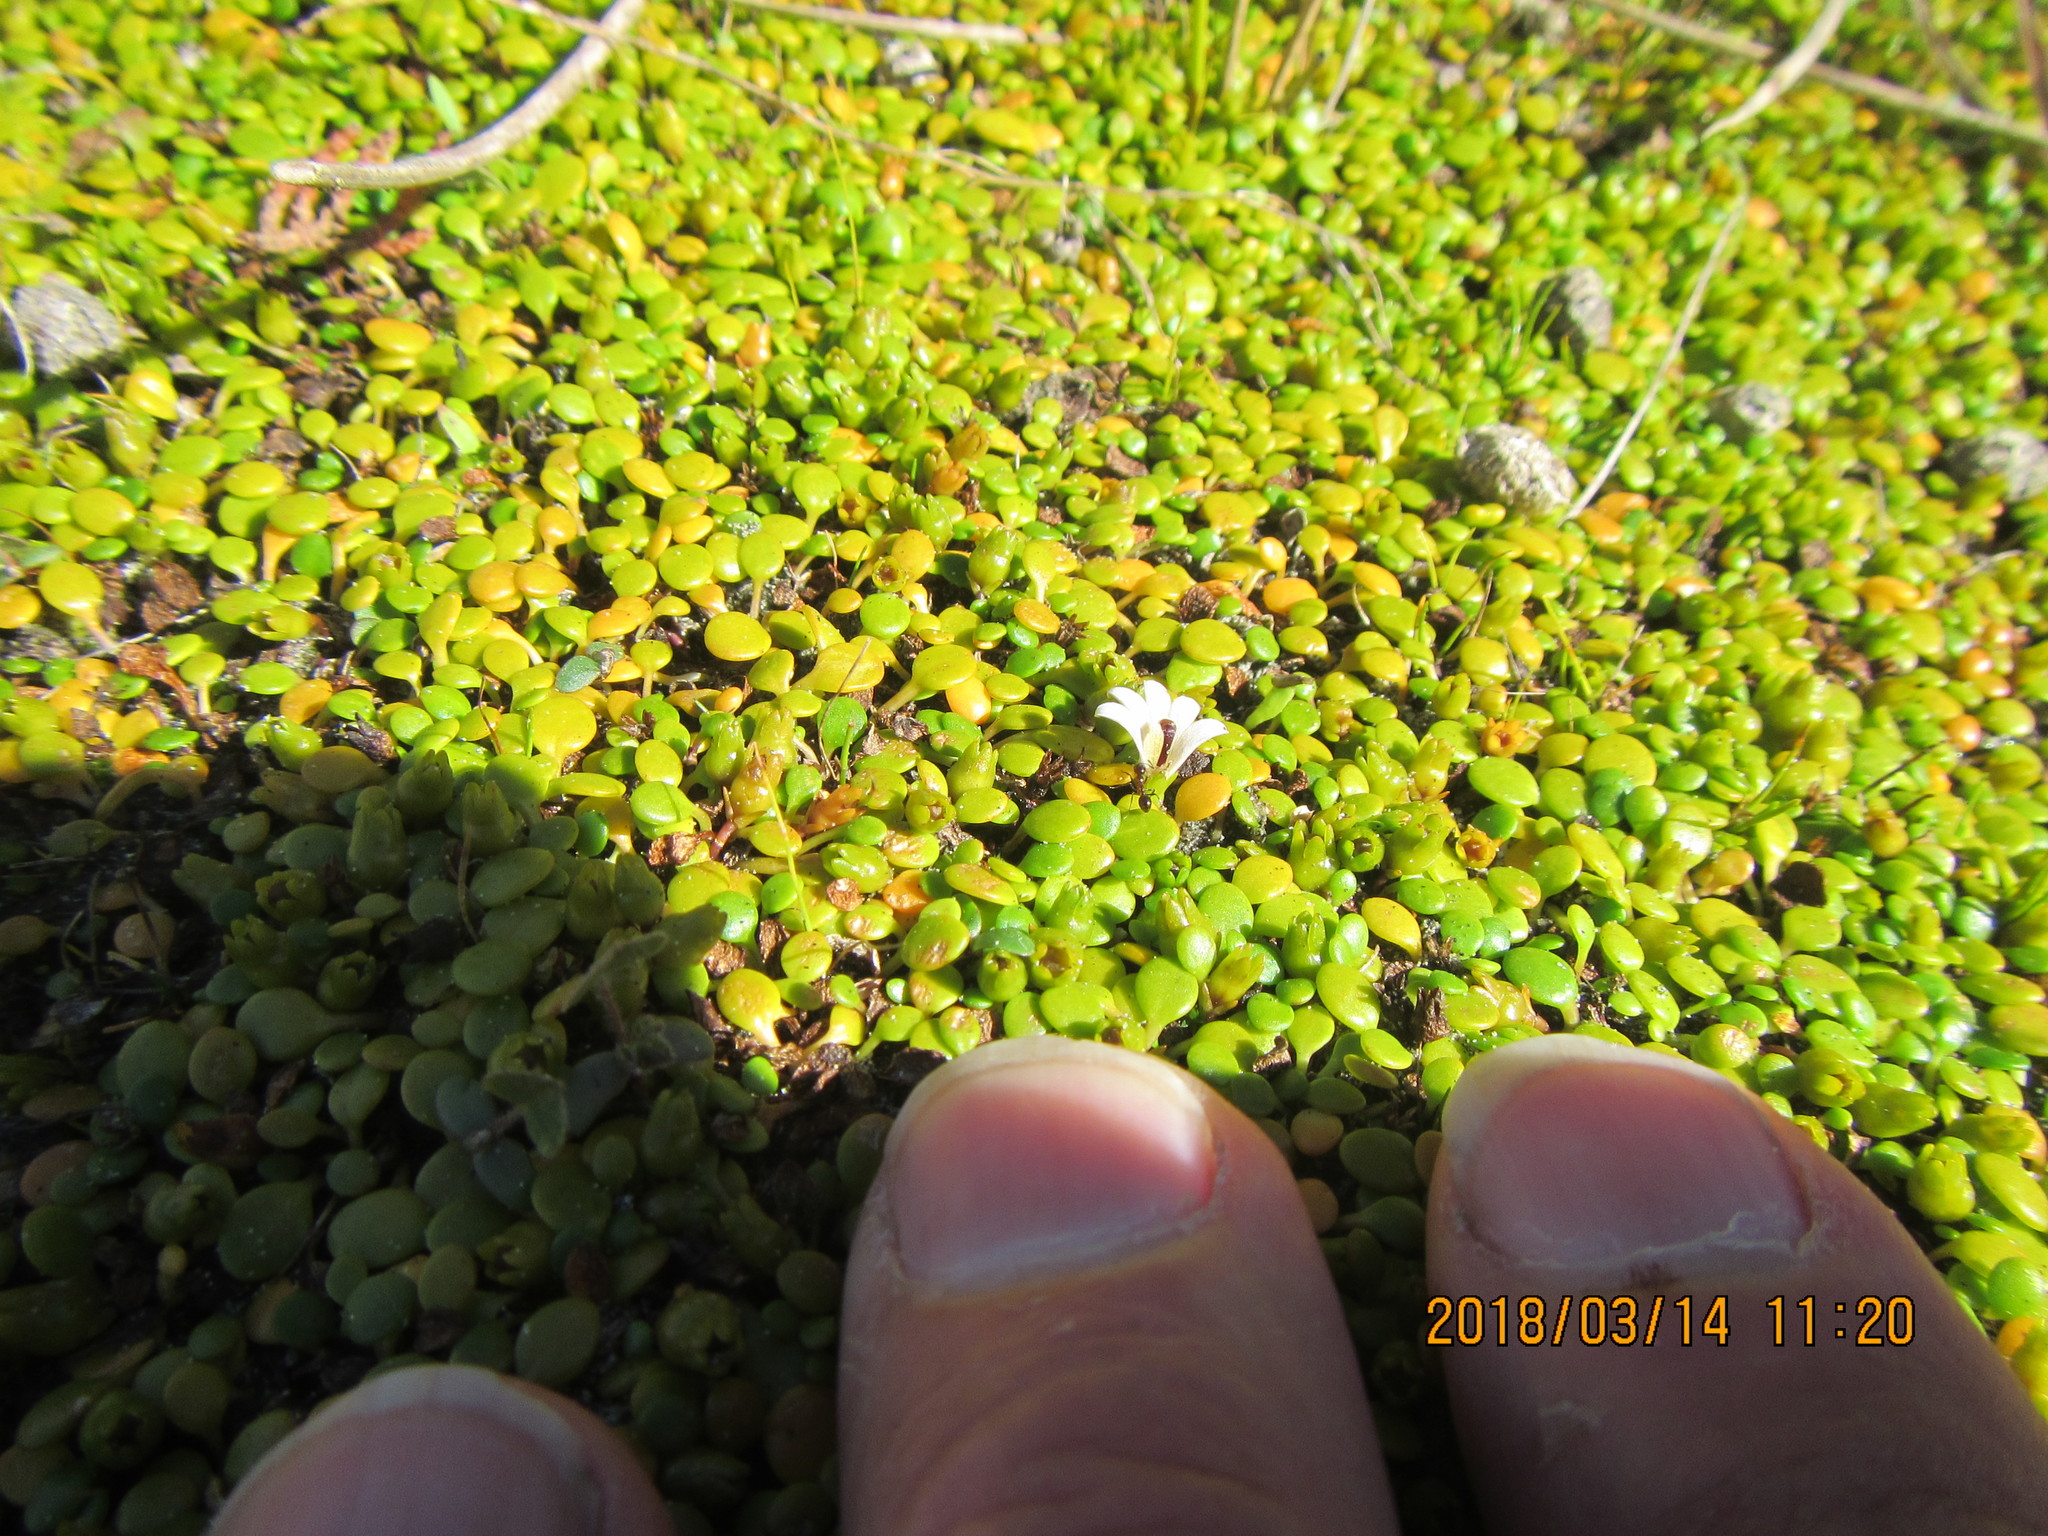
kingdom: Plantae
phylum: Tracheophyta
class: Magnoliopsida
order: Asterales
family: Goodeniaceae
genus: Goodenia
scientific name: Goodenia heenanii
